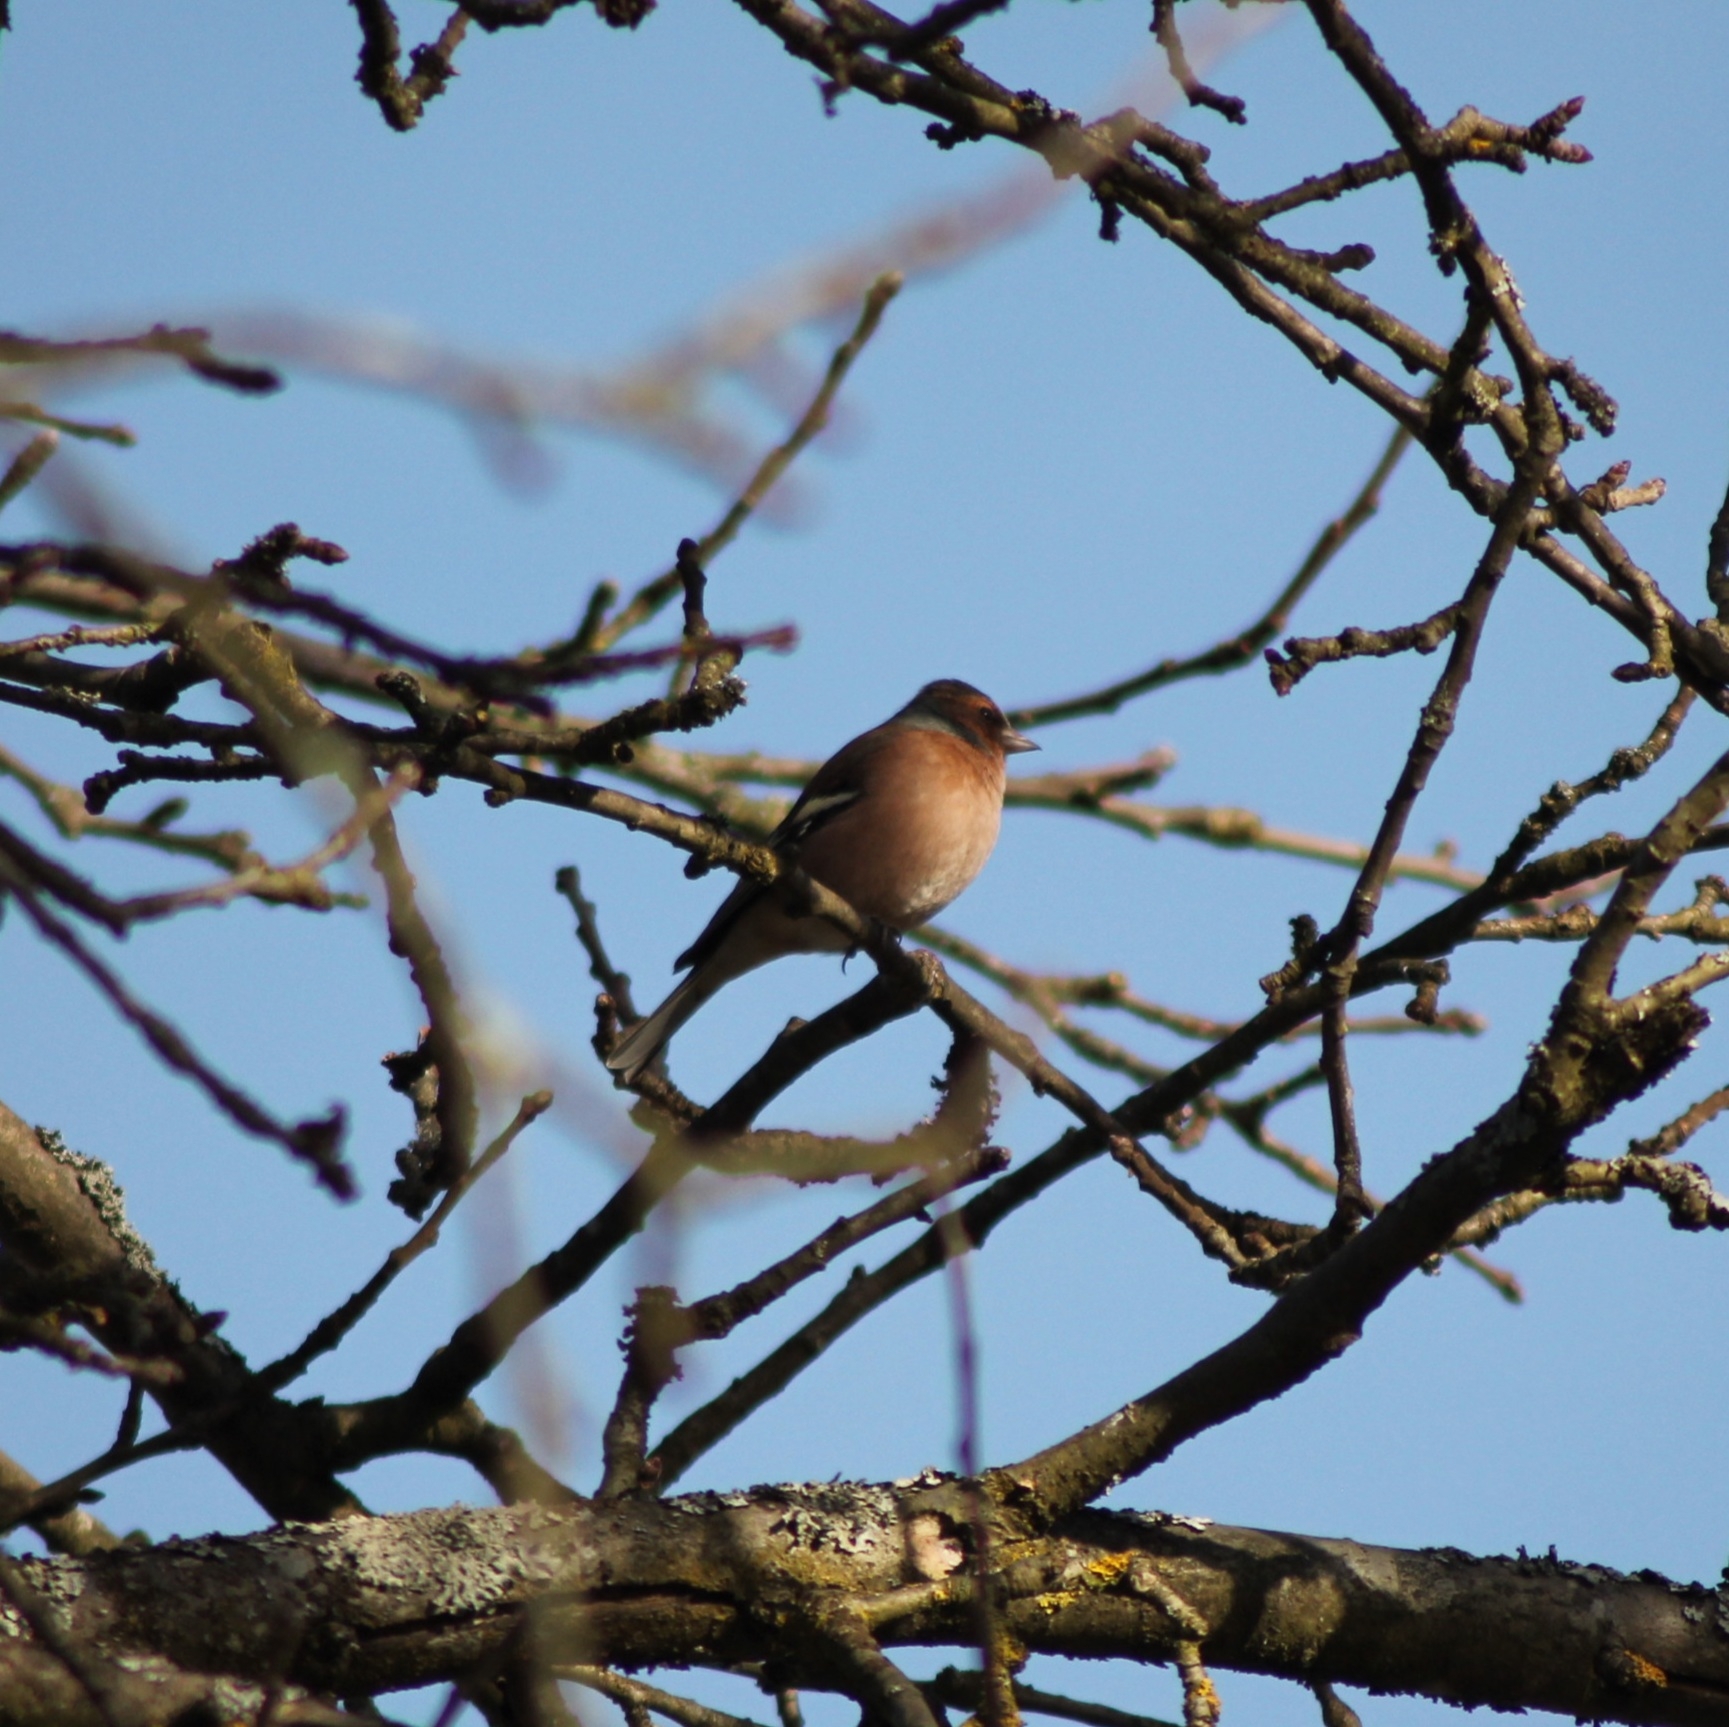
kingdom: Animalia
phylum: Chordata
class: Aves
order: Passeriformes
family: Fringillidae
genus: Fringilla
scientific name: Fringilla coelebs
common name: Common chaffinch
